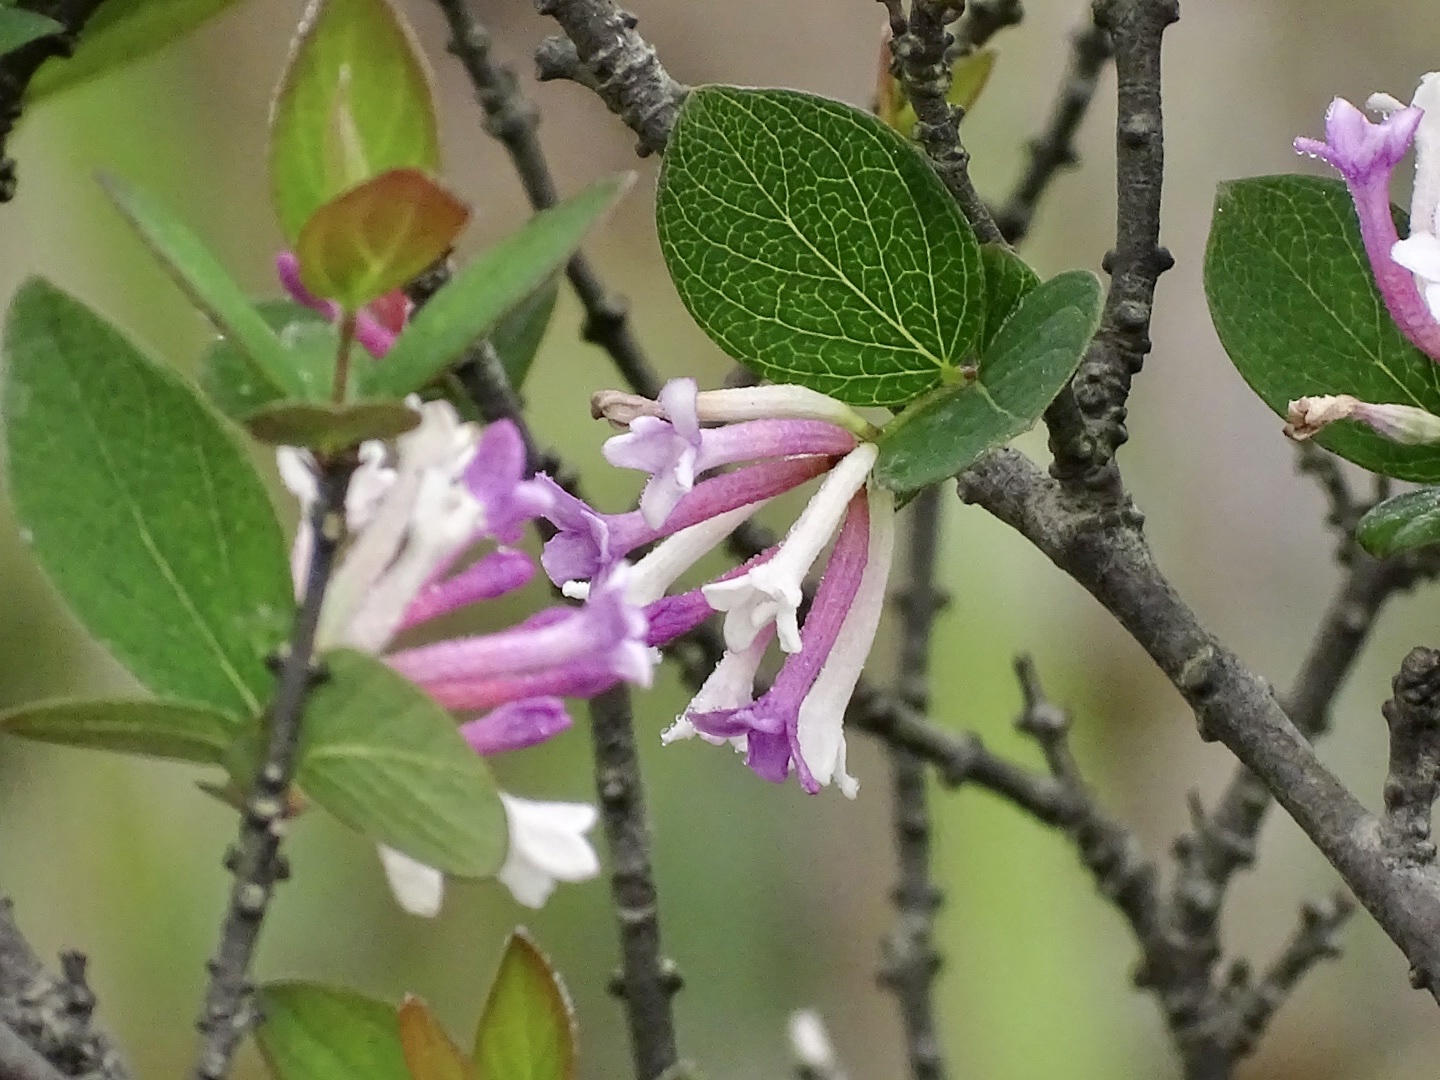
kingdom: Plantae
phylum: Tracheophyta
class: Magnoliopsida
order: Malvales
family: Thymelaeaceae
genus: Wikstroemia
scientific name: Wikstroemia monnula
